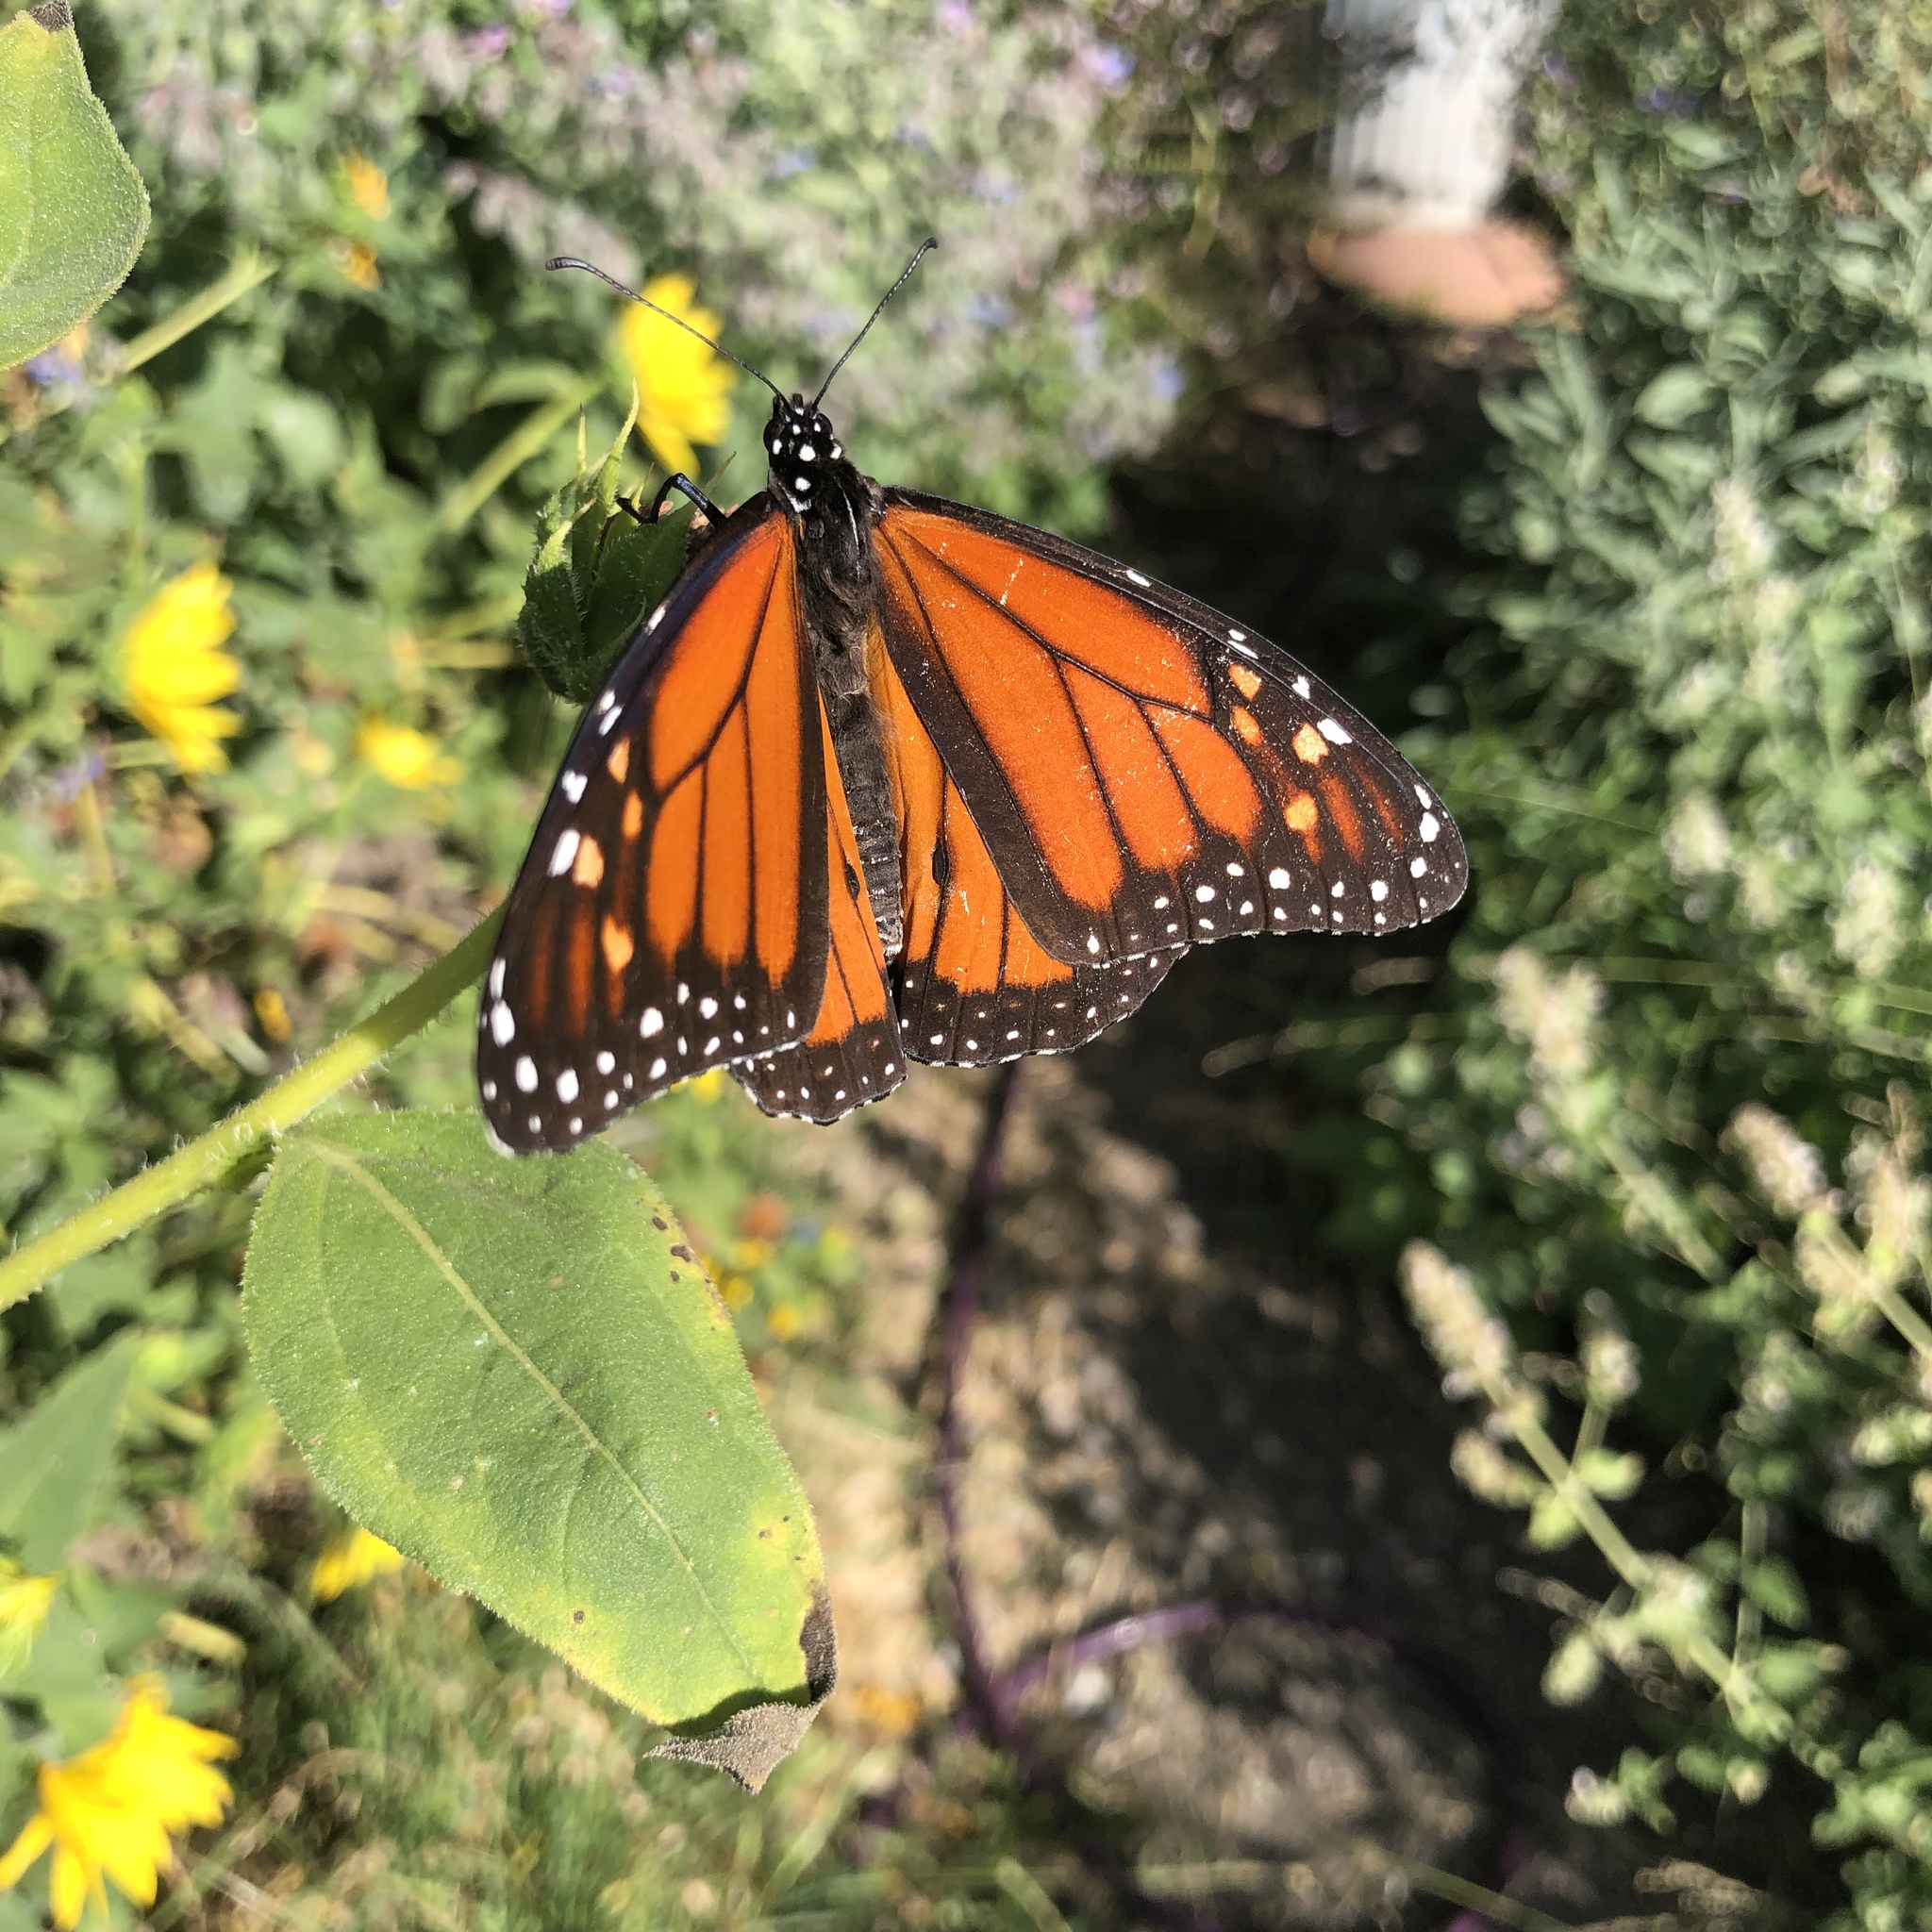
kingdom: Animalia
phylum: Arthropoda
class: Insecta
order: Lepidoptera
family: Nymphalidae
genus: Danaus
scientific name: Danaus plexippus
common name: Monarch
